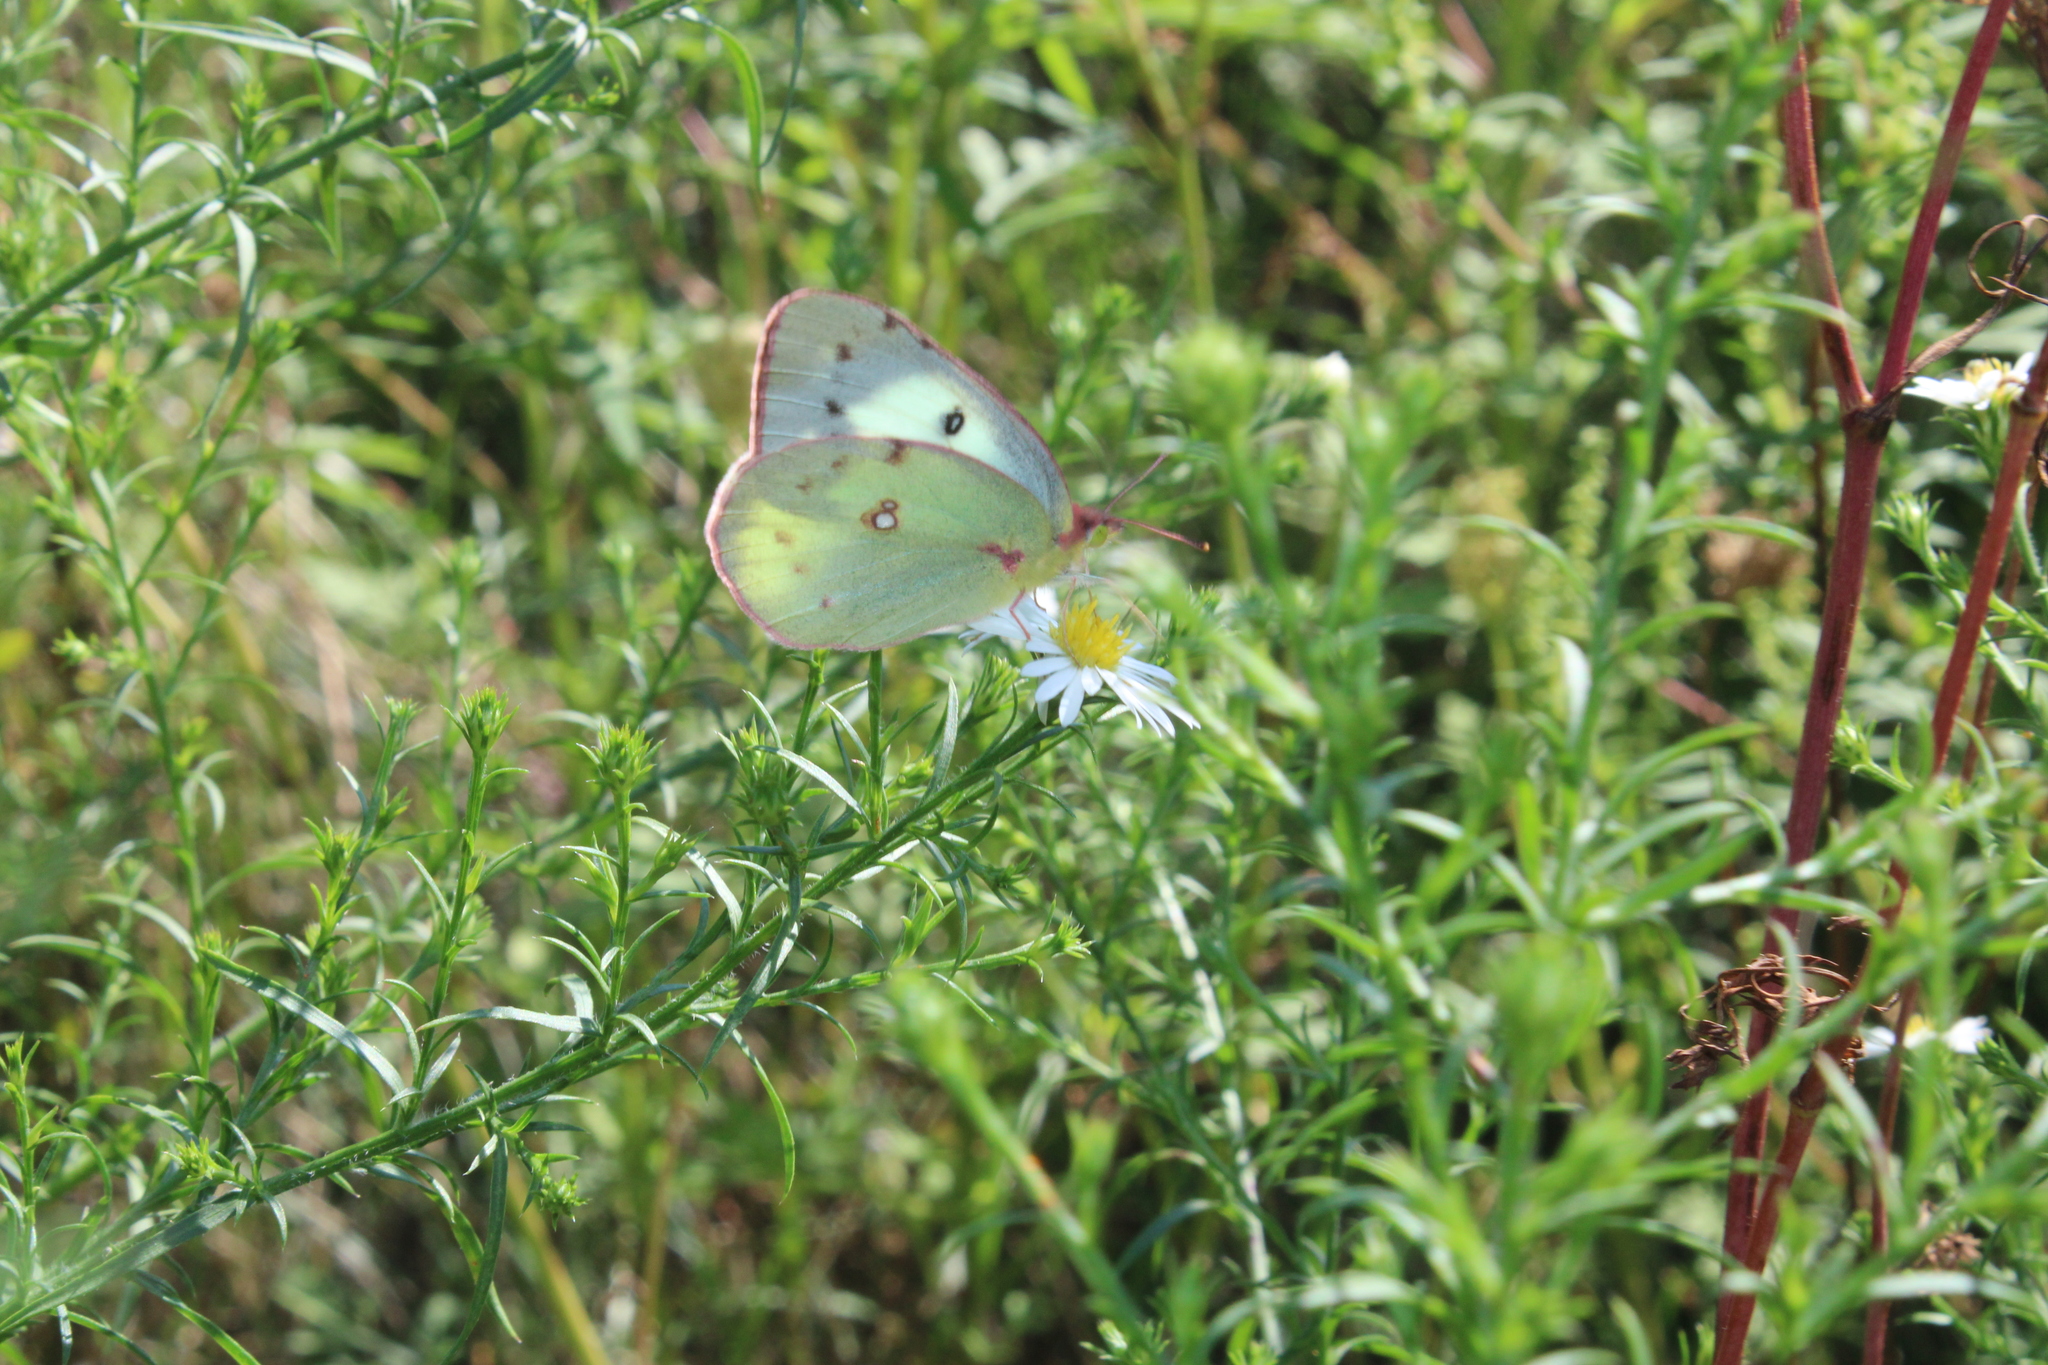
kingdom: Animalia
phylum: Arthropoda
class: Insecta
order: Lepidoptera
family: Pieridae
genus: Colias
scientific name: Colias philodice
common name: Clouded sulphur
